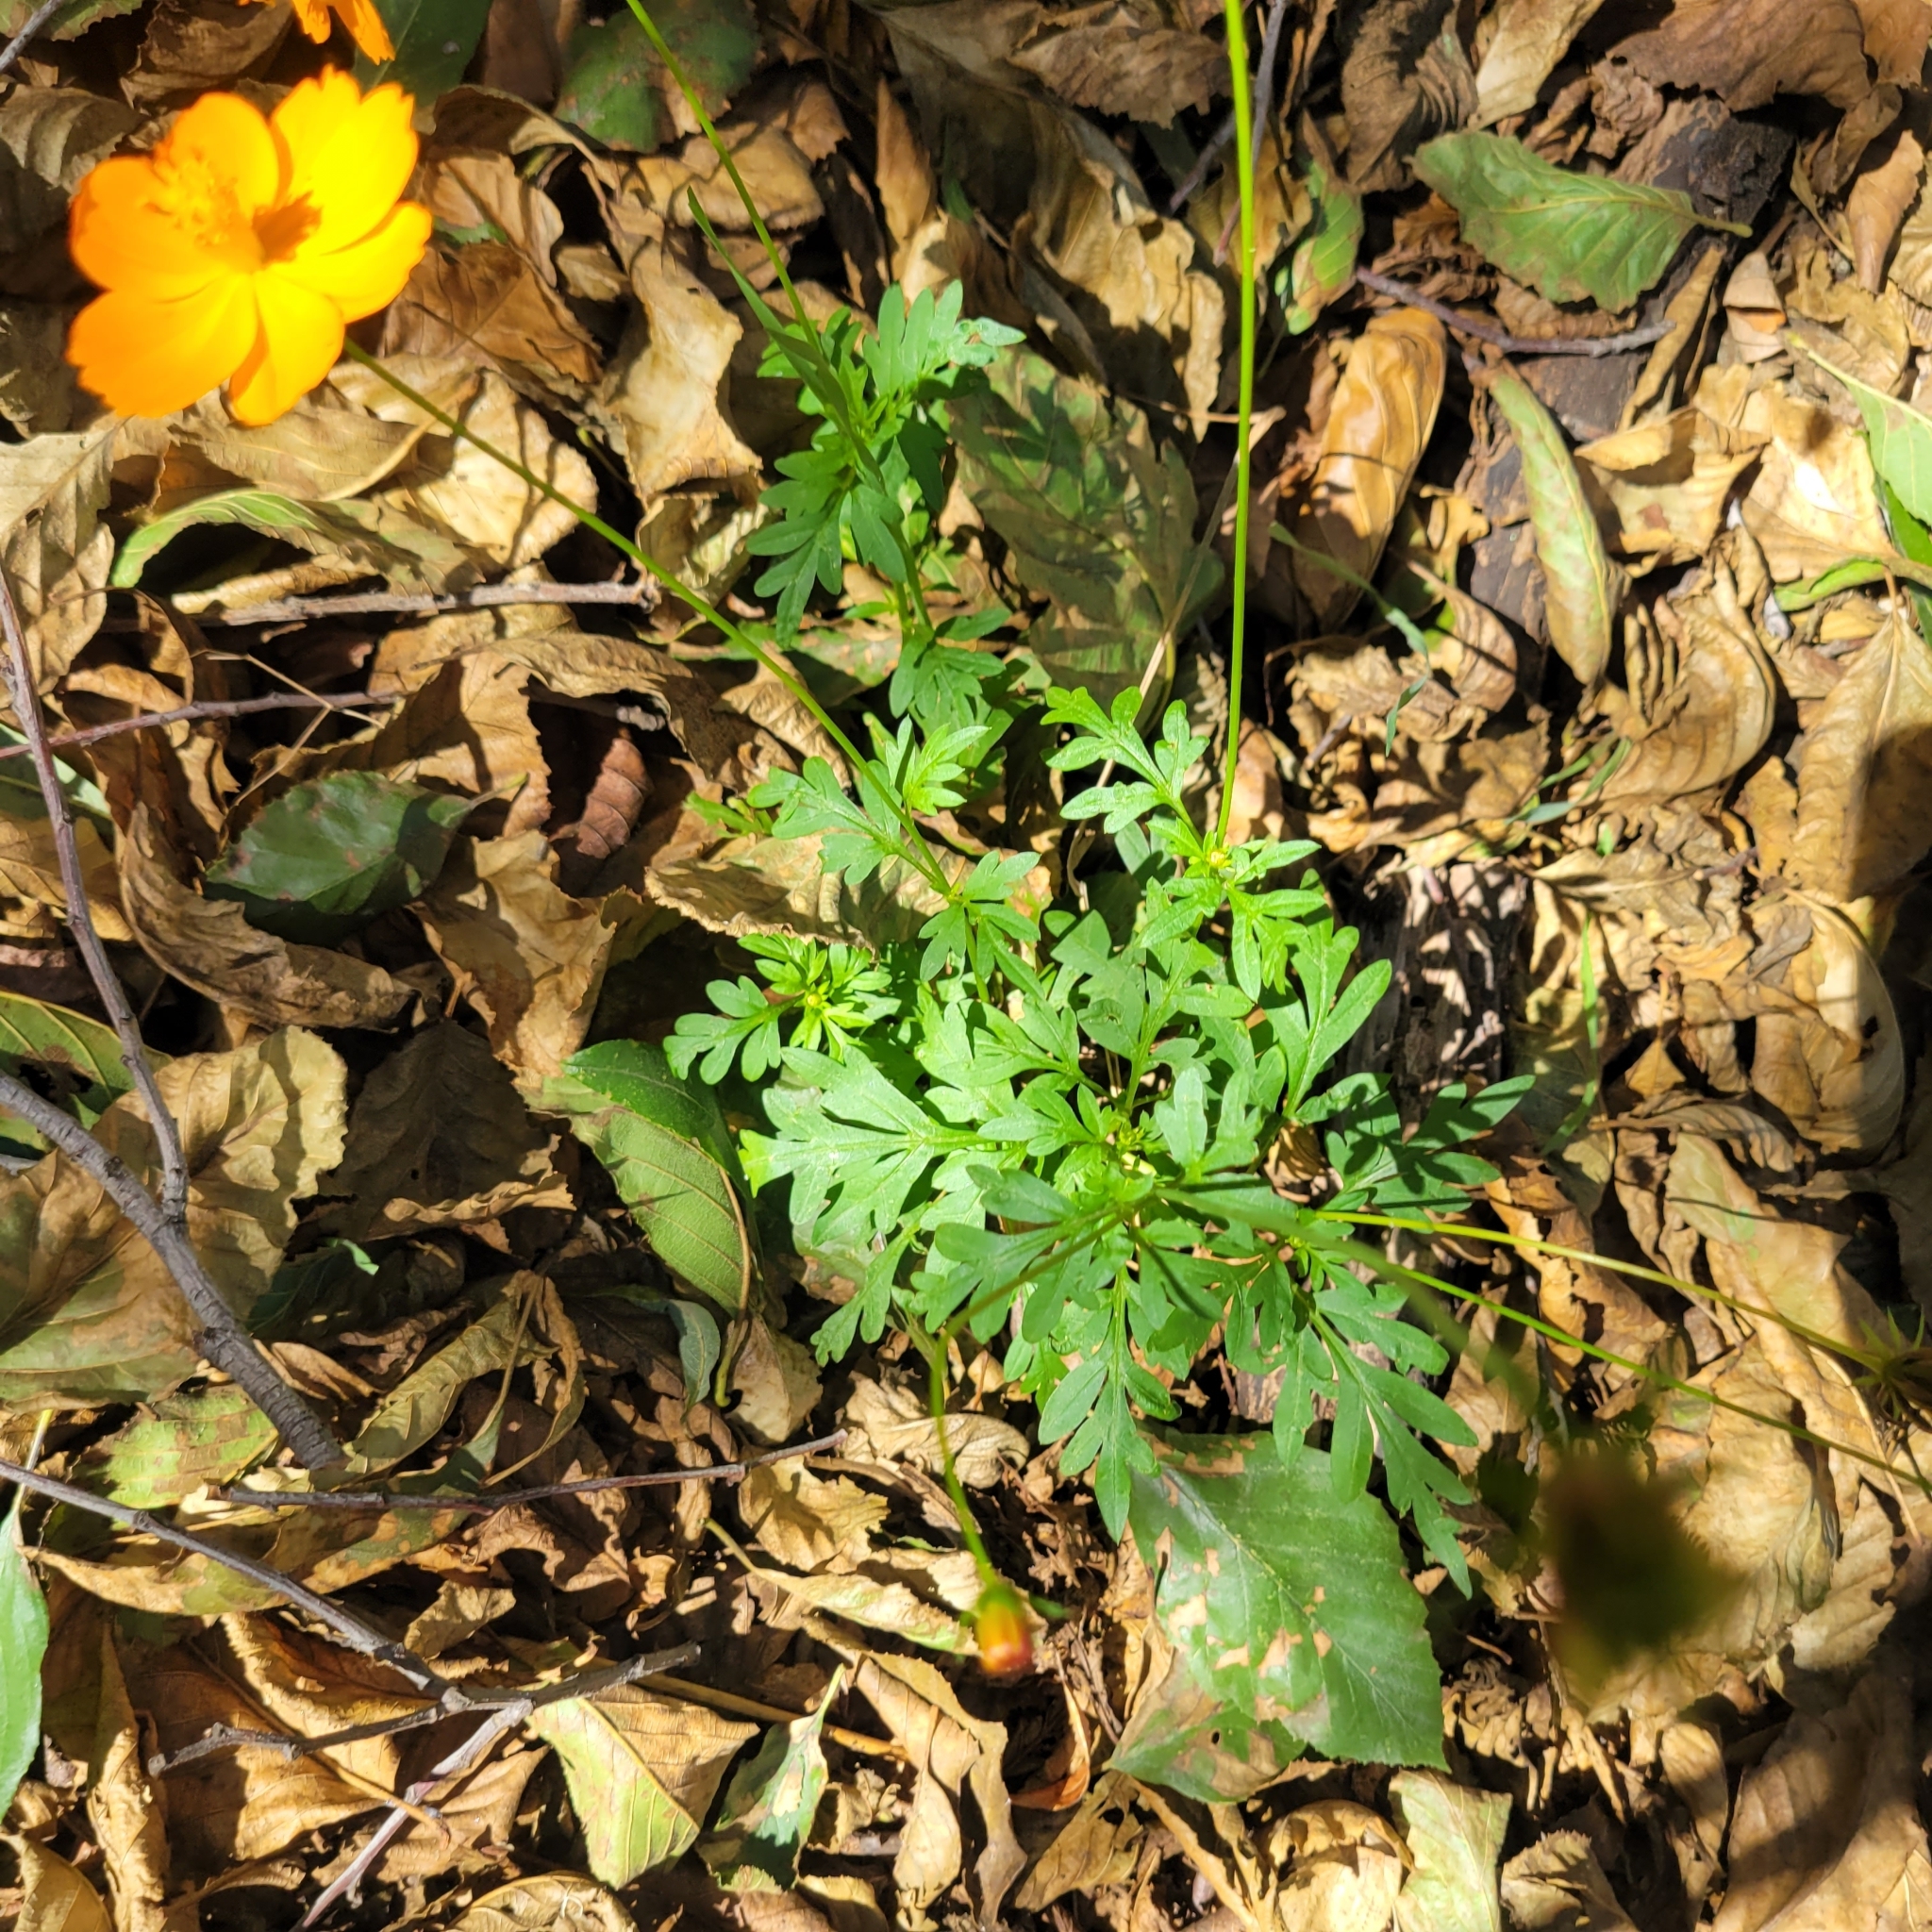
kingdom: Plantae
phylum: Tracheophyta
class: Magnoliopsida
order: Asterales
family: Asteraceae
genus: Cosmos
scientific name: Cosmos sulphureus
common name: Sulphur cosmos
